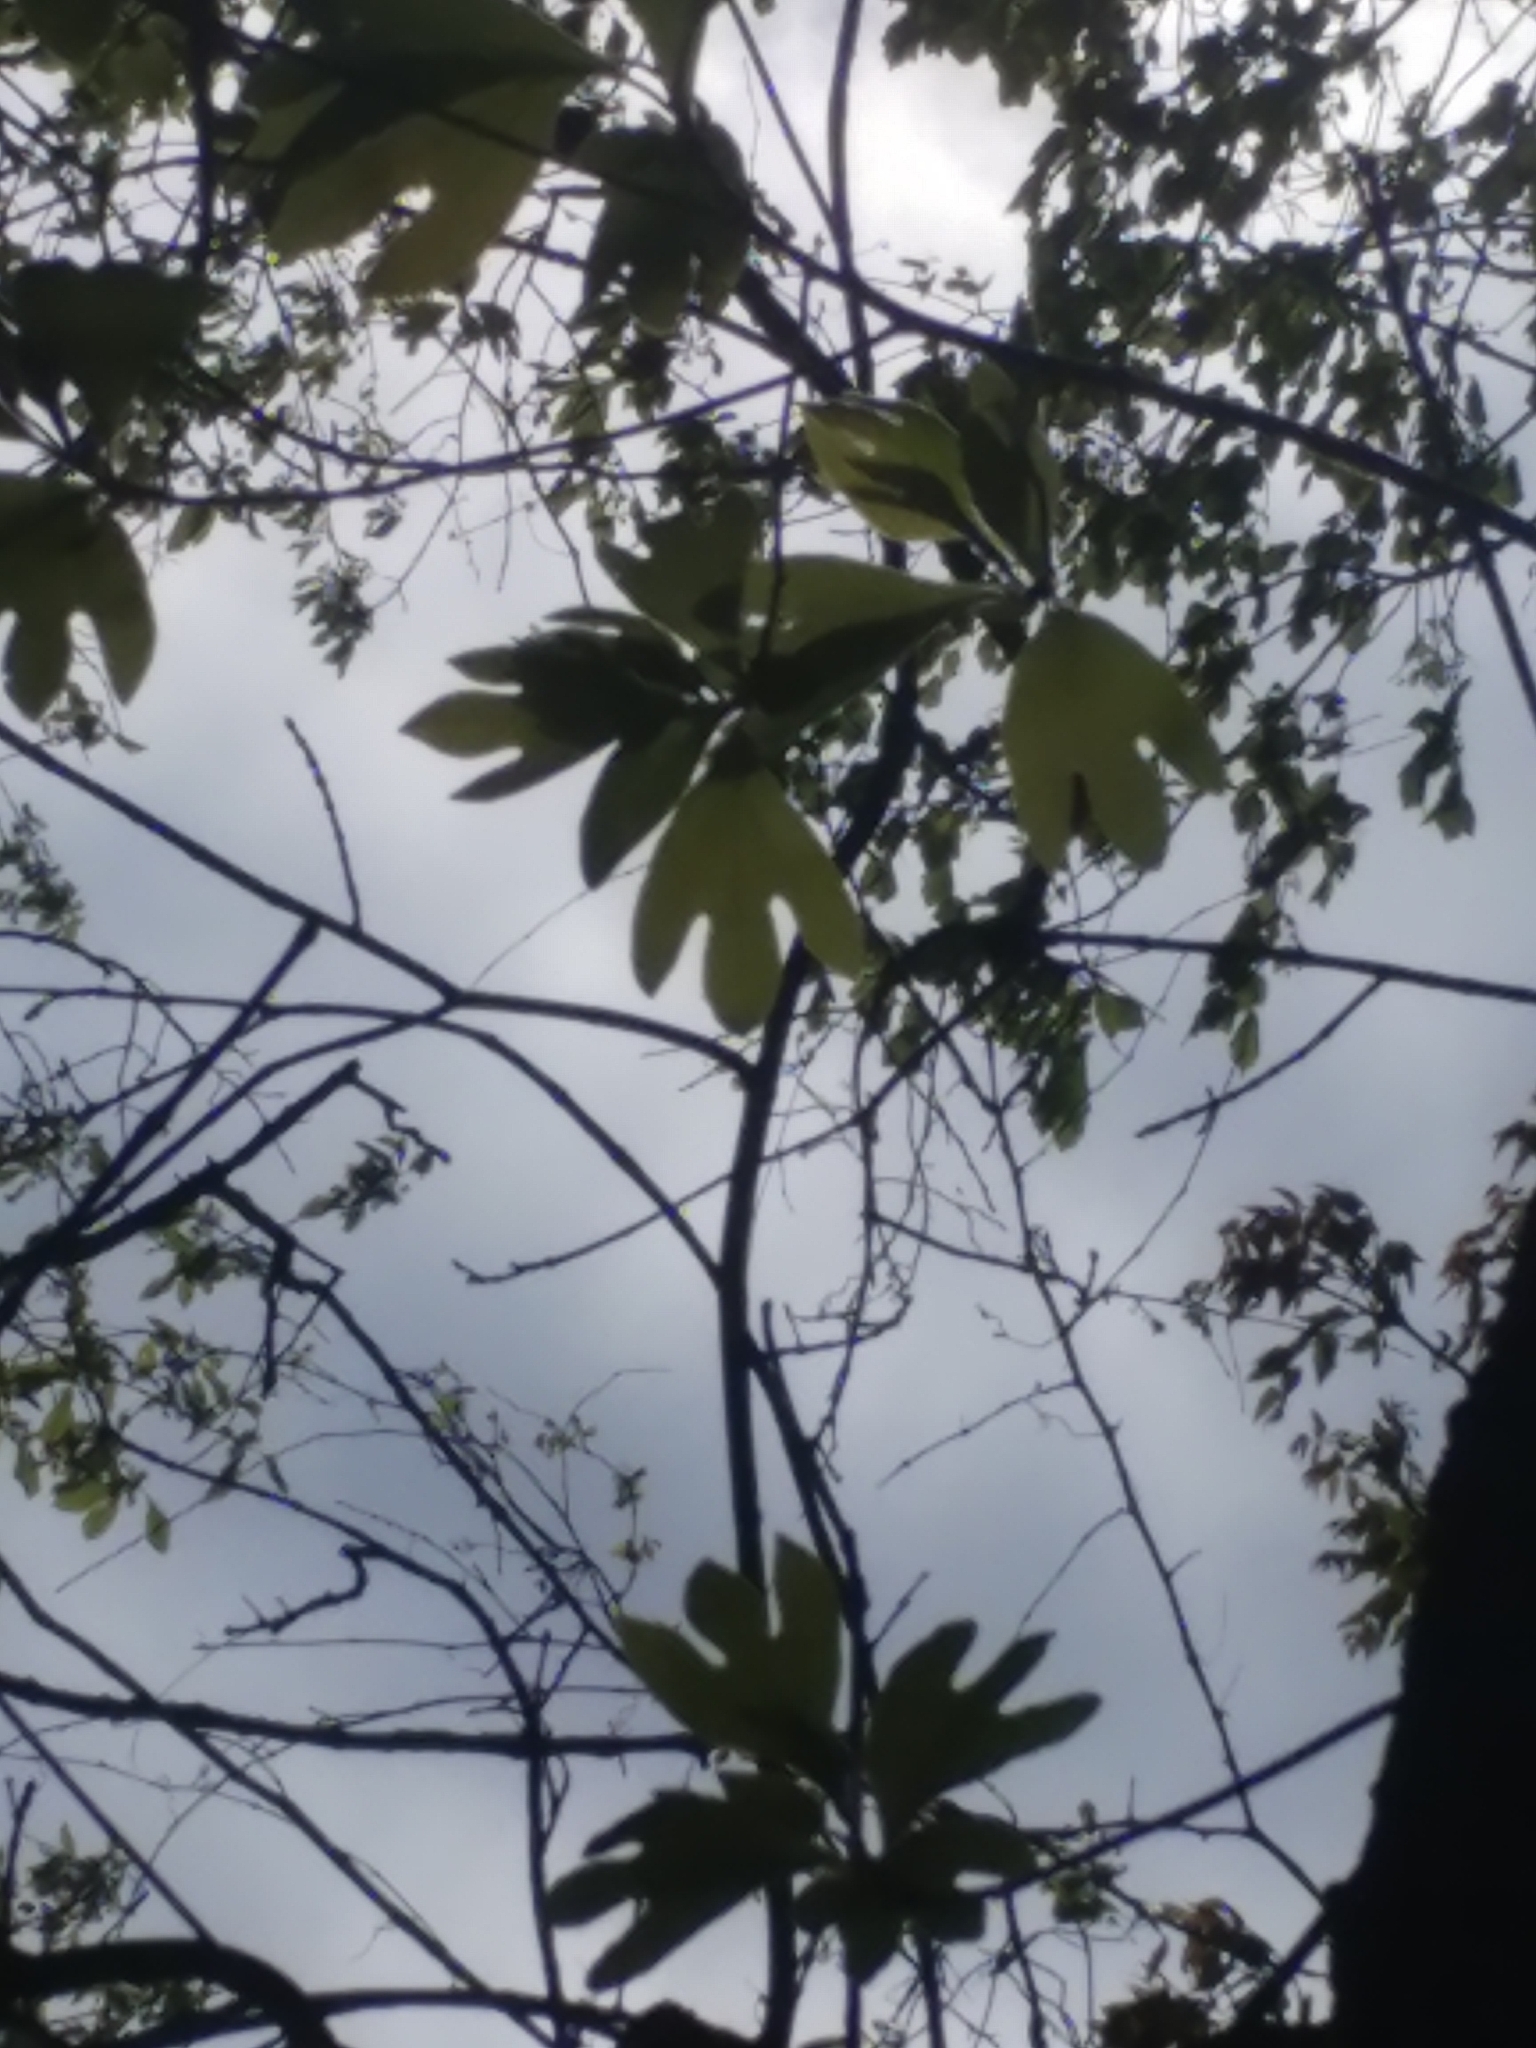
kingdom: Plantae
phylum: Tracheophyta
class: Magnoliopsida
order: Laurales
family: Lauraceae
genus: Sassafras
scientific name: Sassafras albidum
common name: Sassafras
